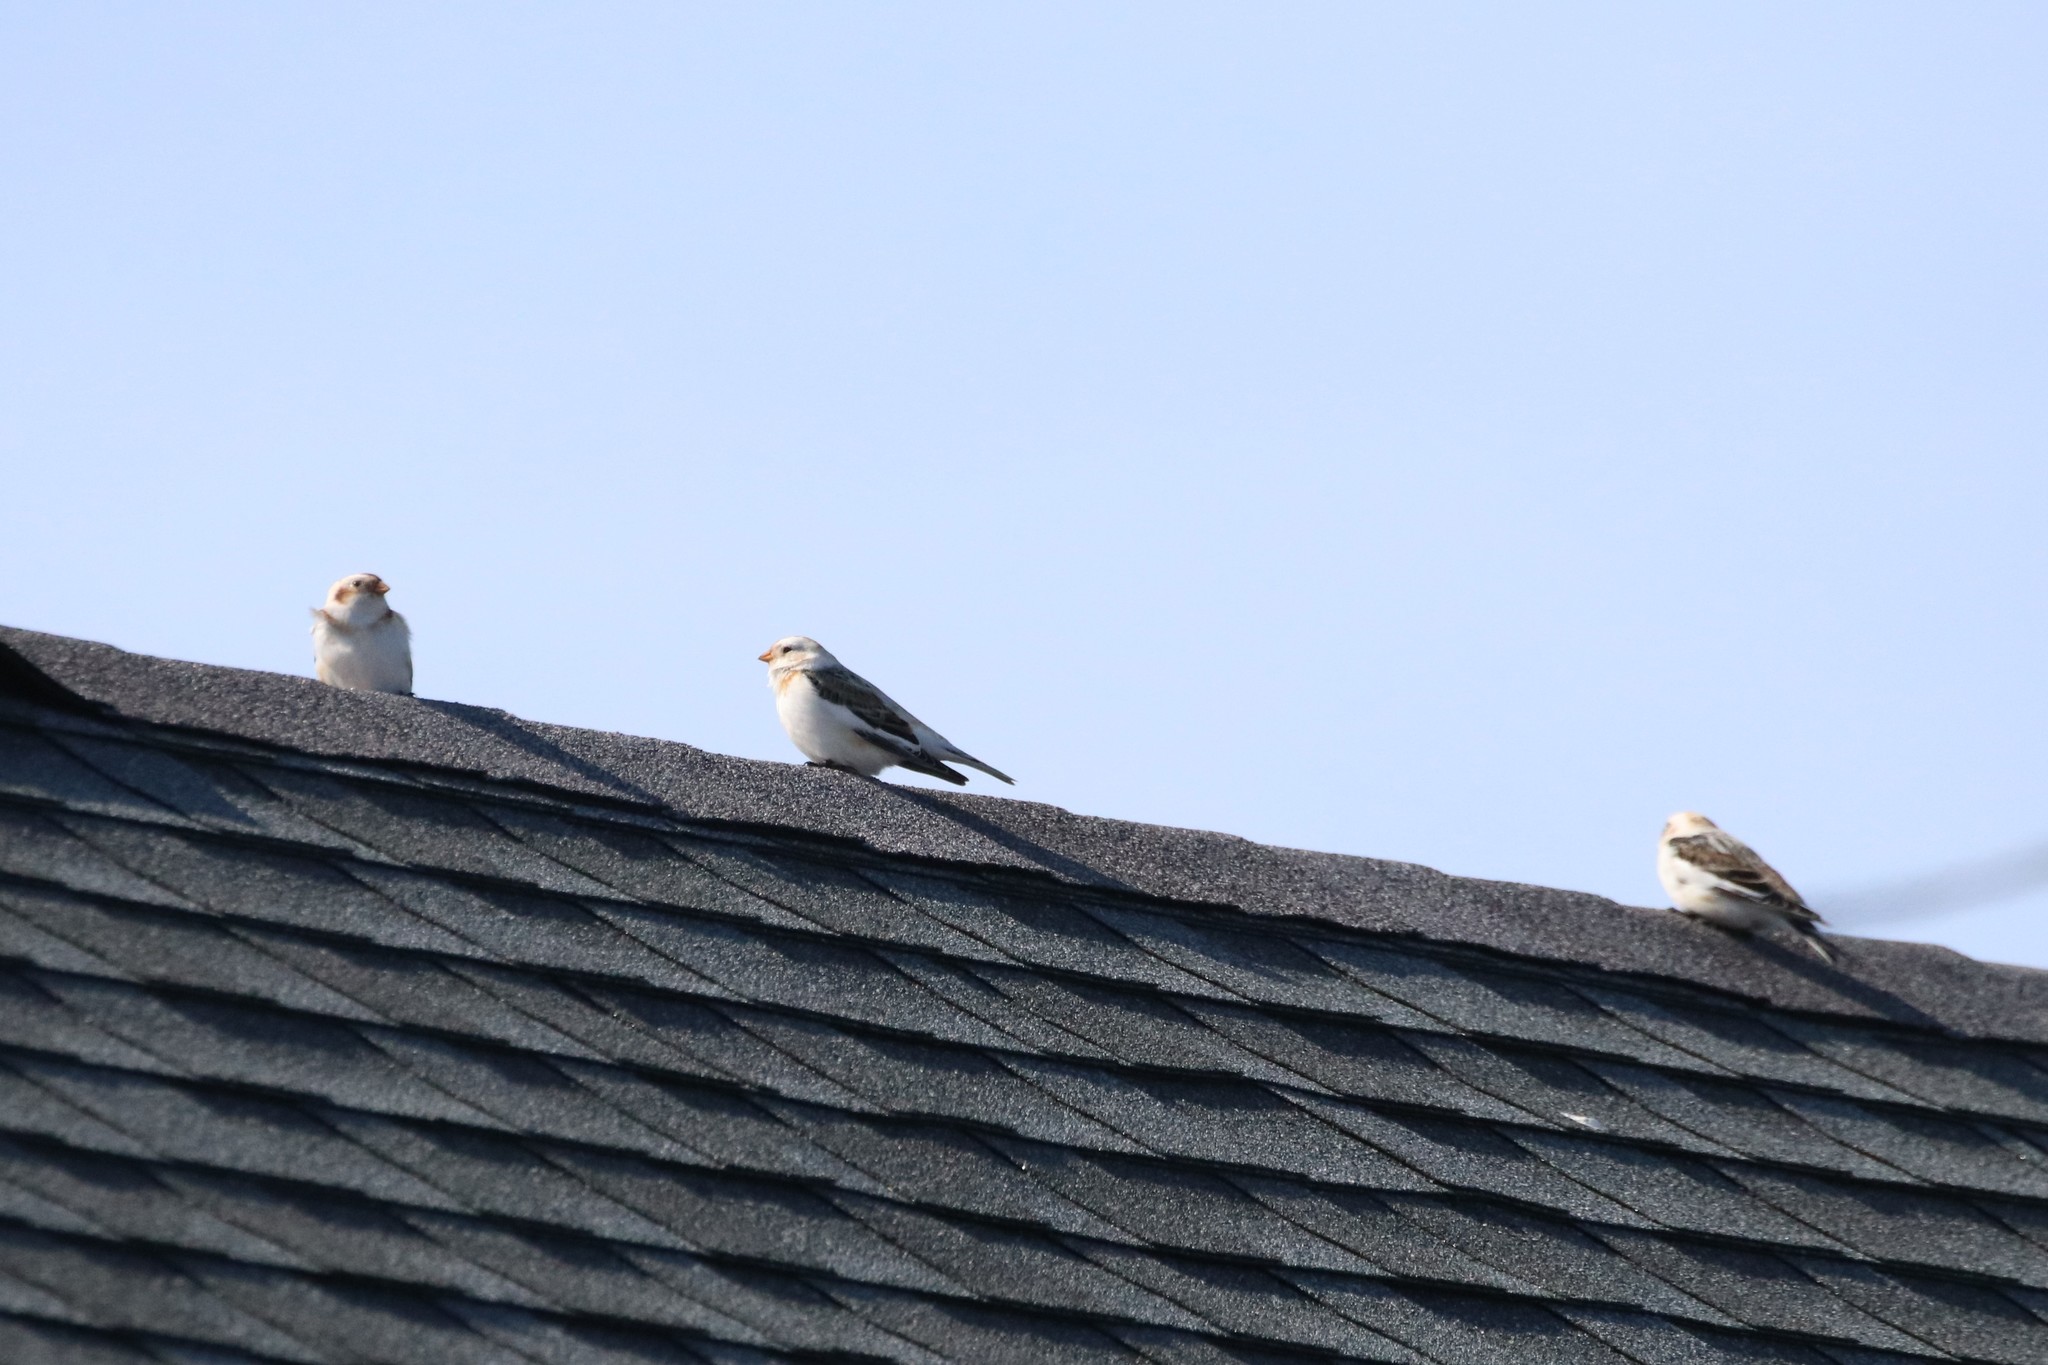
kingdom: Animalia
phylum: Chordata
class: Aves
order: Passeriformes
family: Calcariidae
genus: Plectrophenax
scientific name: Plectrophenax nivalis
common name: Snow bunting
